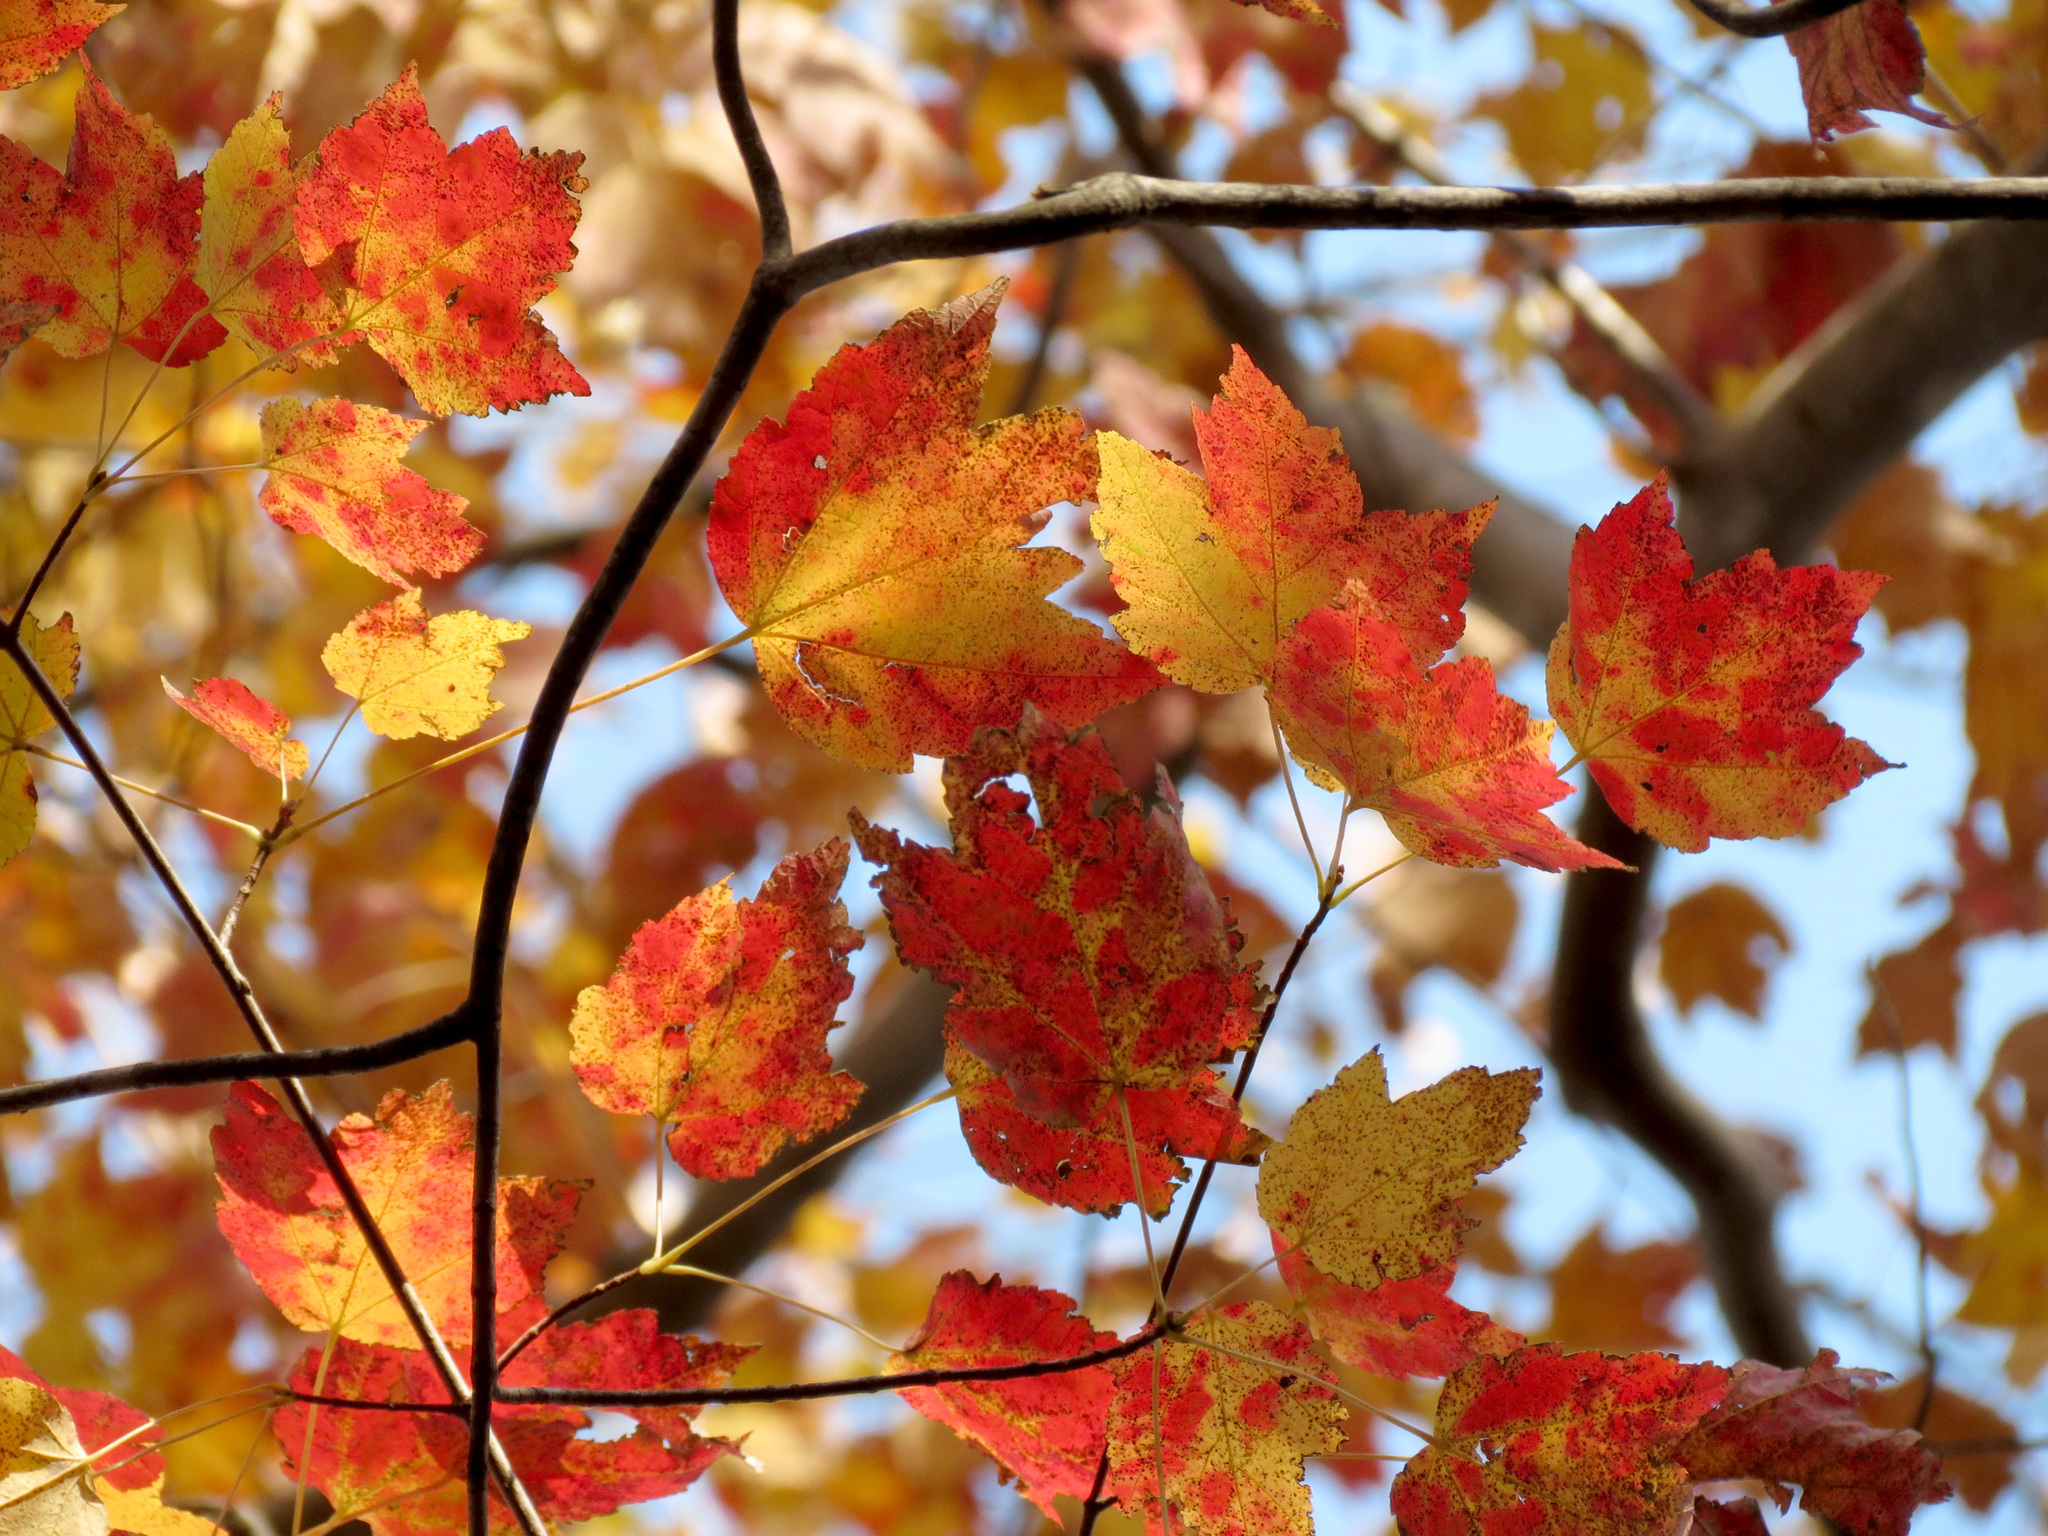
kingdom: Plantae
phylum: Tracheophyta
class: Magnoliopsida
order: Sapindales
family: Sapindaceae
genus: Acer
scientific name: Acer rubrum
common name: Red maple
